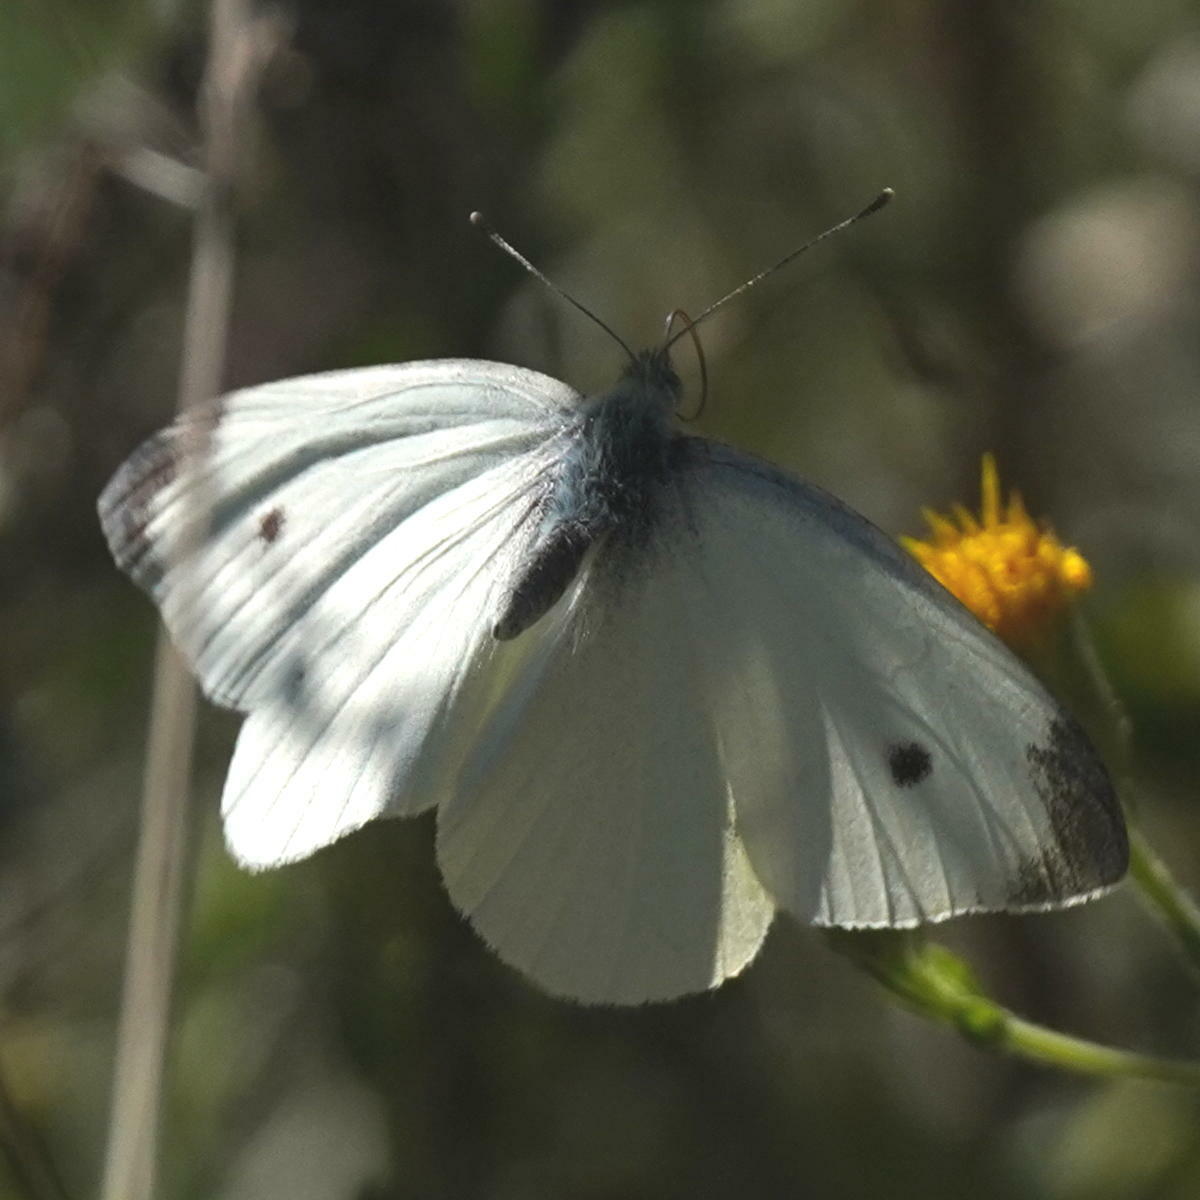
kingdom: Animalia
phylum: Arthropoda
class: Insecta
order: Lepidoptera
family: Pieridae
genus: Pieris
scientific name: Pieris rapae
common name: Small white
